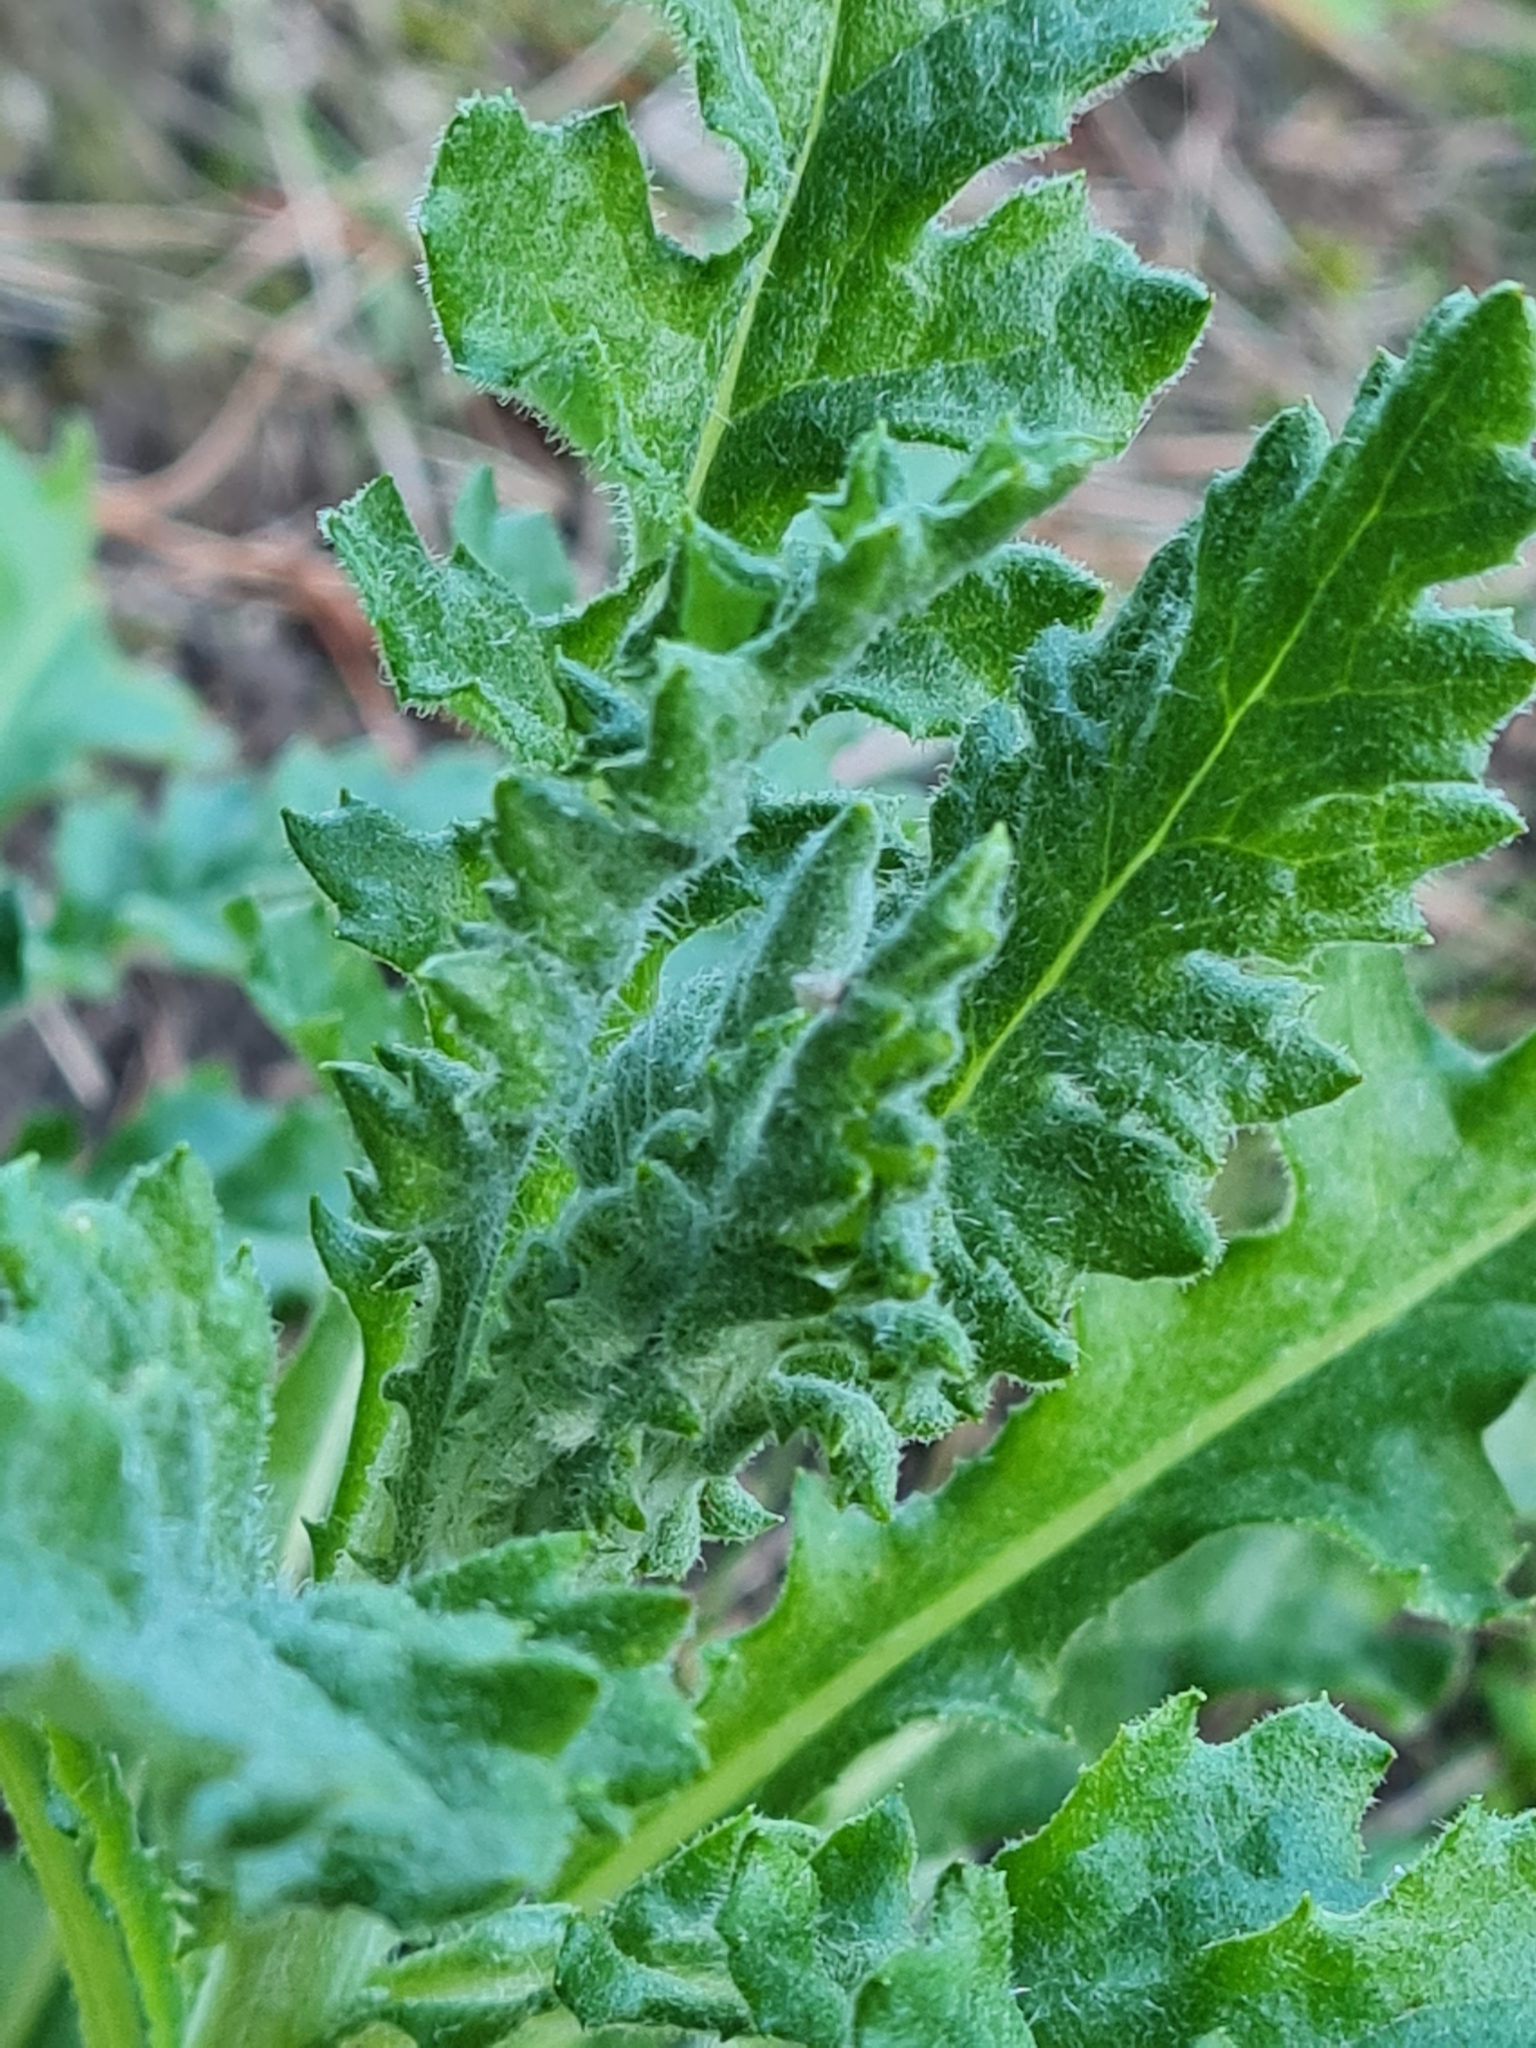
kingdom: Plantae
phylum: Tracheophyta
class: Magnoliopsida
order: Asterales
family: Asteraceae
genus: Senecio
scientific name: Senecio glomeratus
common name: Cutleaf burnweed
